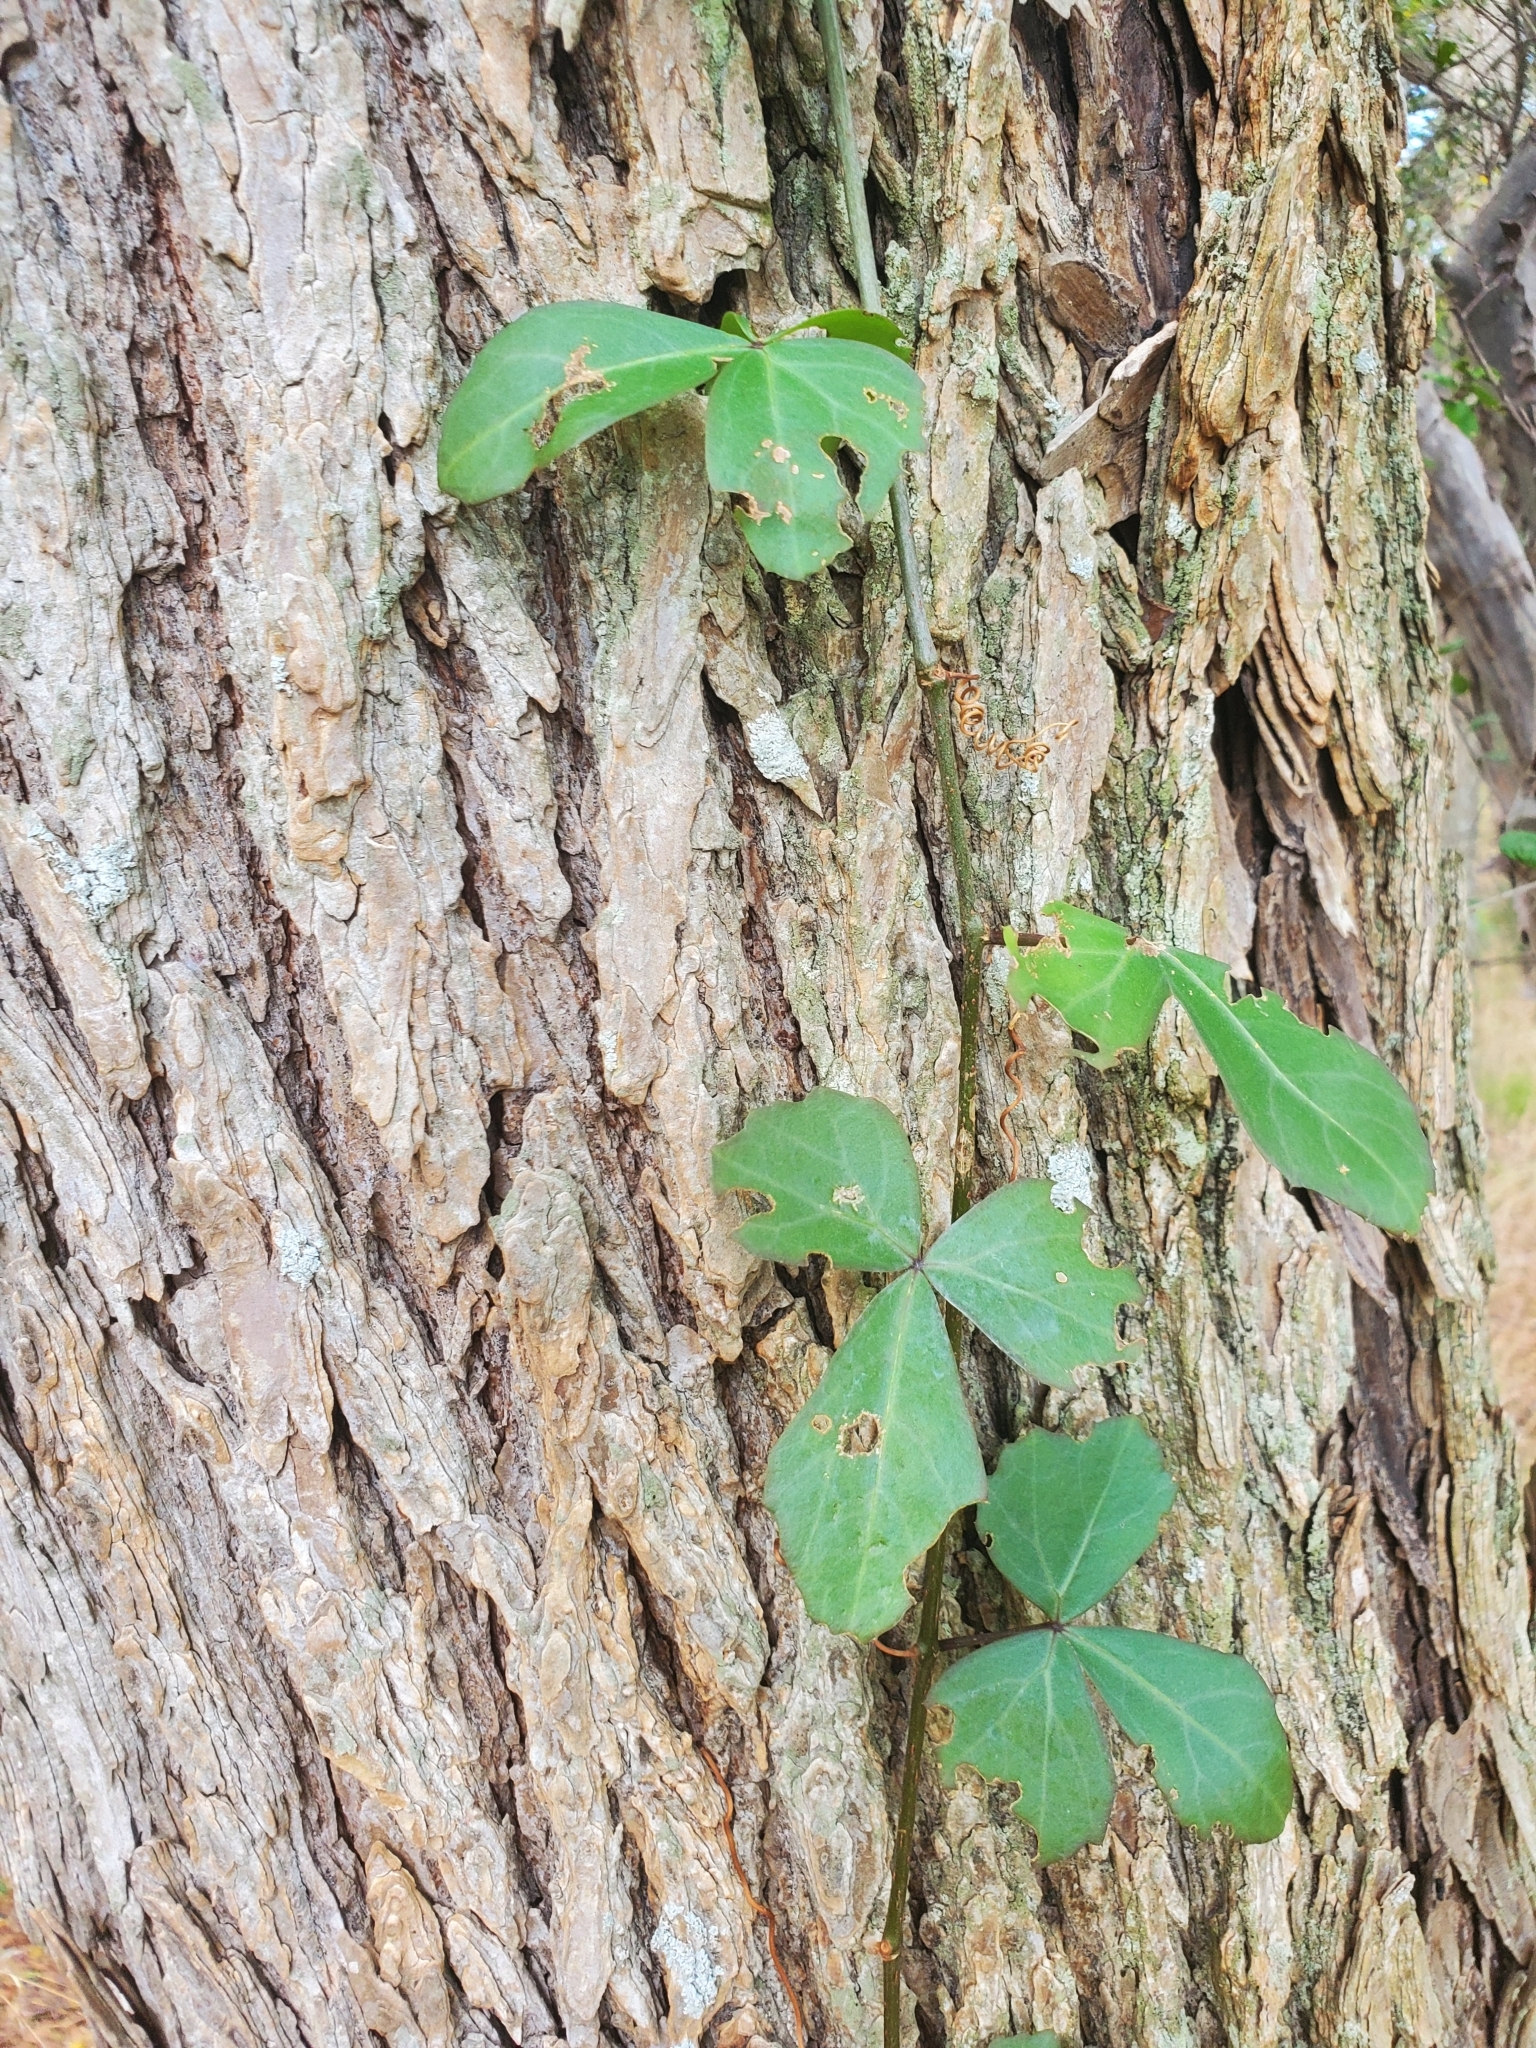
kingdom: Plantae
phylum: Tracheophyta
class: Magnoliopsida
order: Vitales
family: Vitaceae
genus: Cissus
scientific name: Cissus trifoliata
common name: Vine-sorrel
